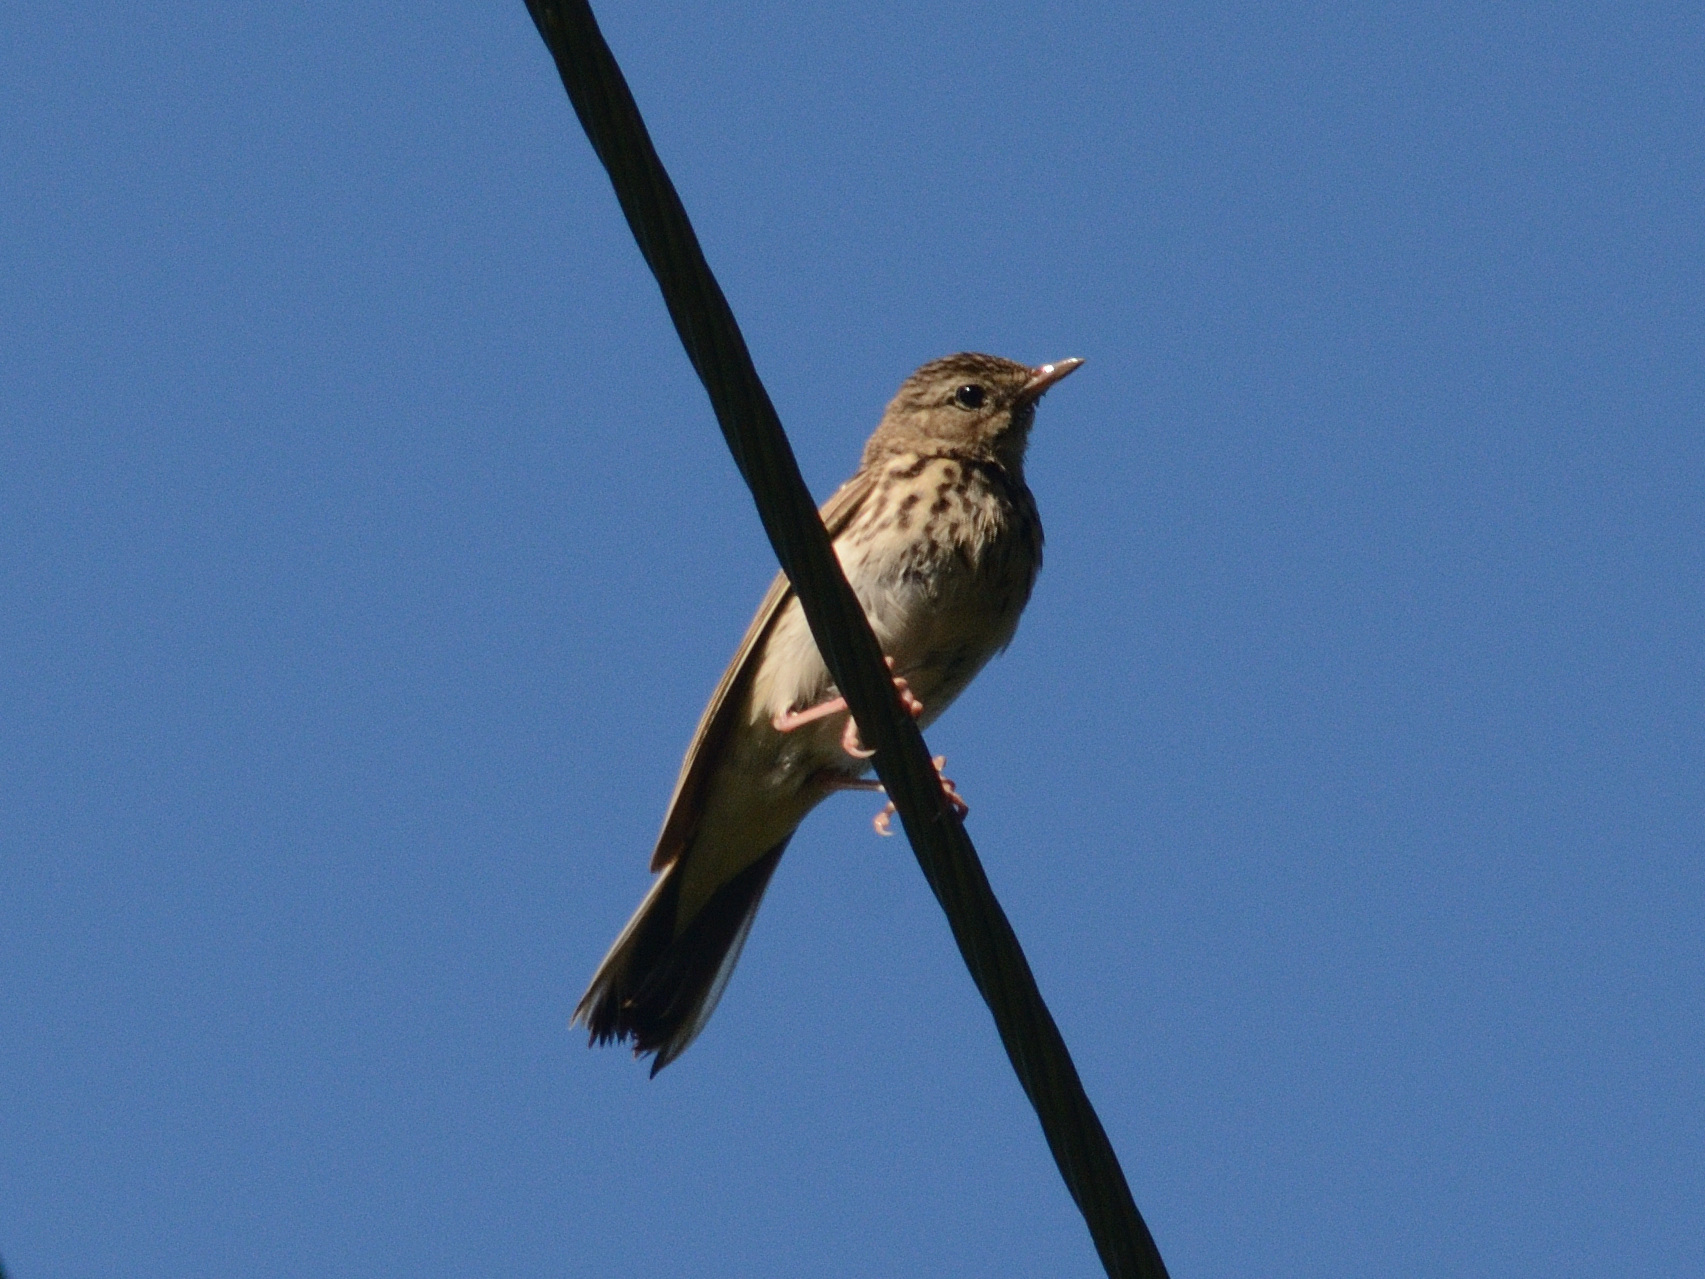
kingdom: Animalia
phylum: Chordata
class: Aves
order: Passeriformes
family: Motacillidae
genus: Anthus
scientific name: Anthus trivialis
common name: Tree pipit
